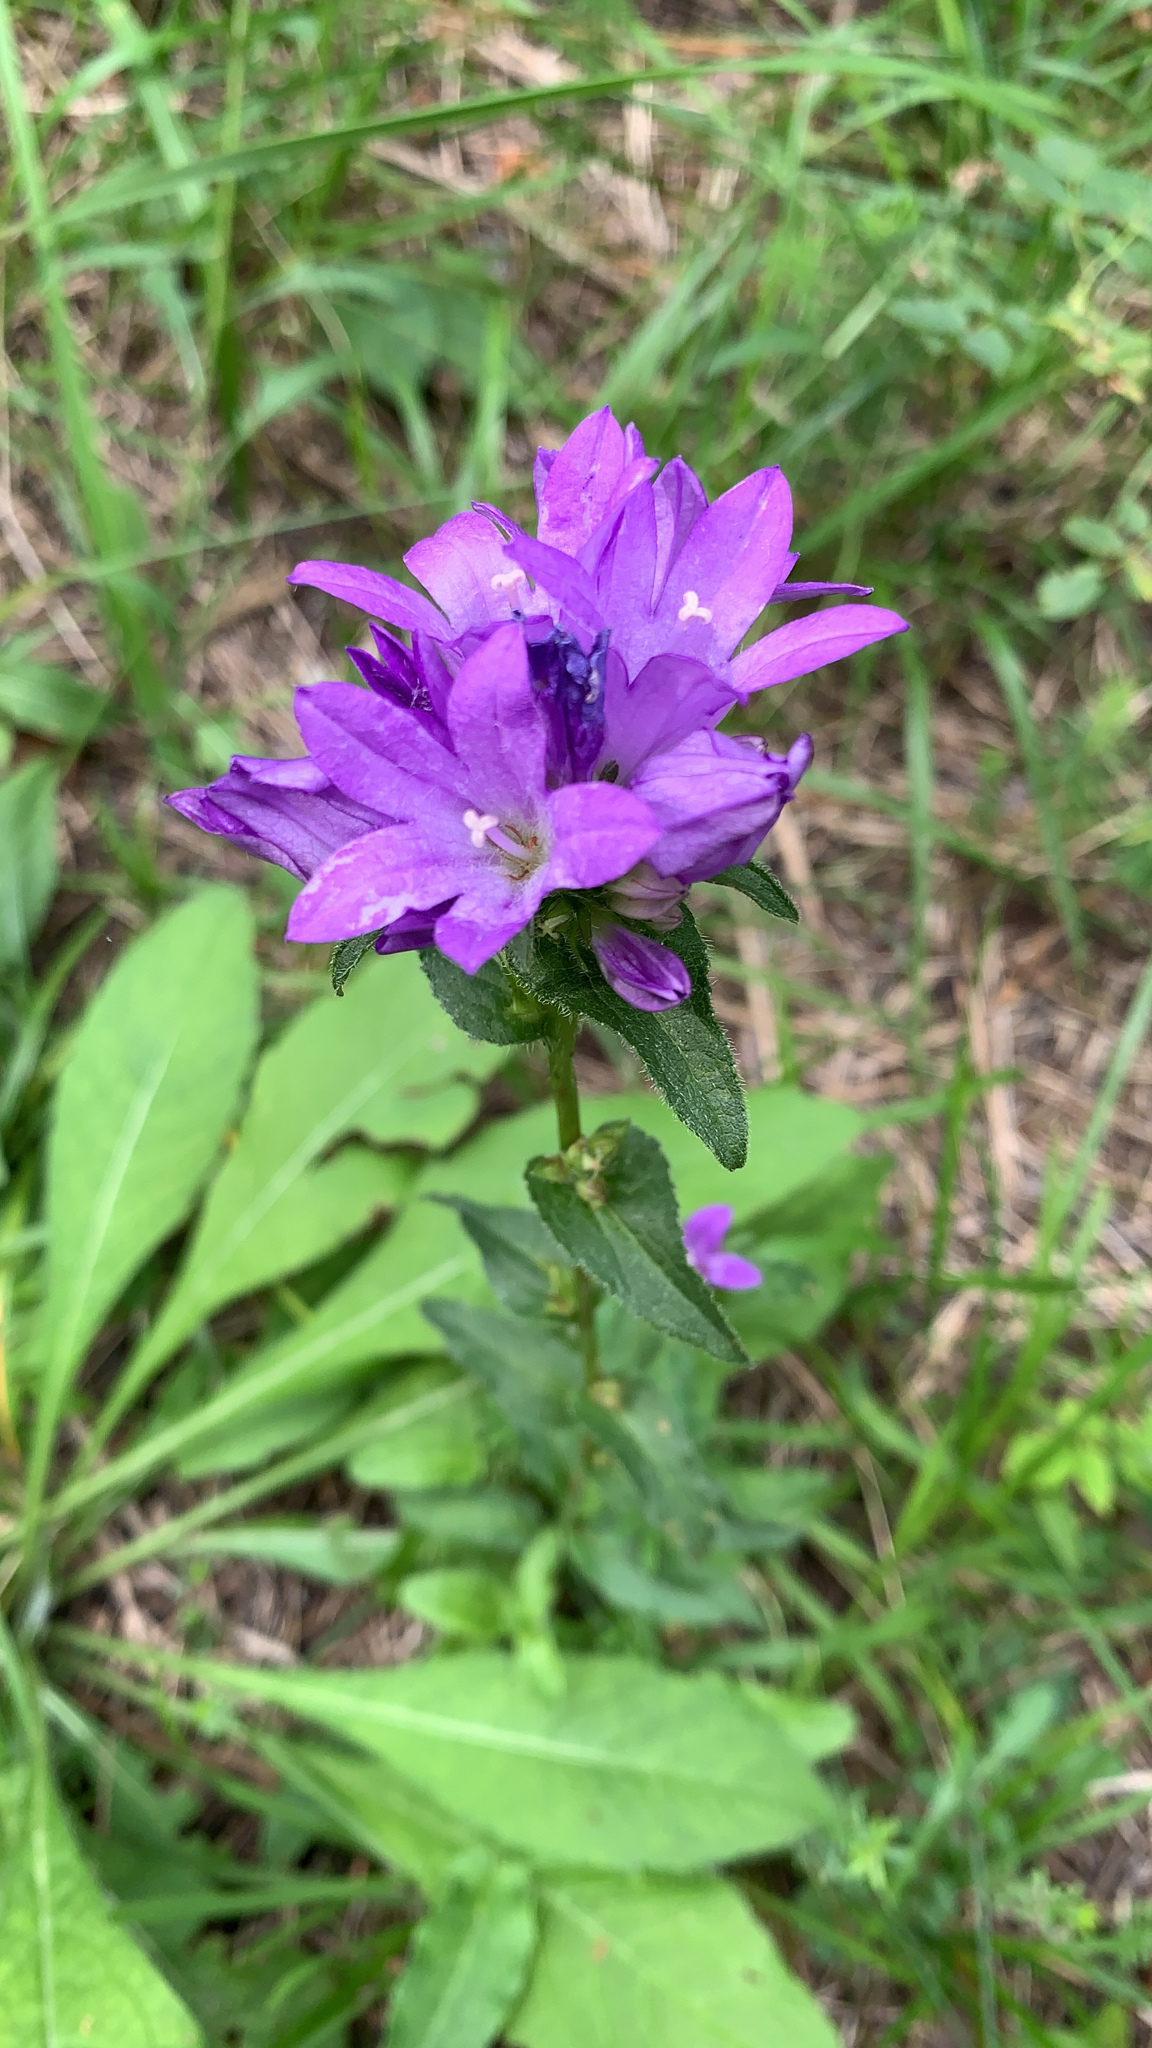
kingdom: Plantae
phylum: Tracheophyta
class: Magnoliopsida
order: Asterales
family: Campanulaceae
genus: Campanula
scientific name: Campanula glomerata
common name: Clustered bellflower
